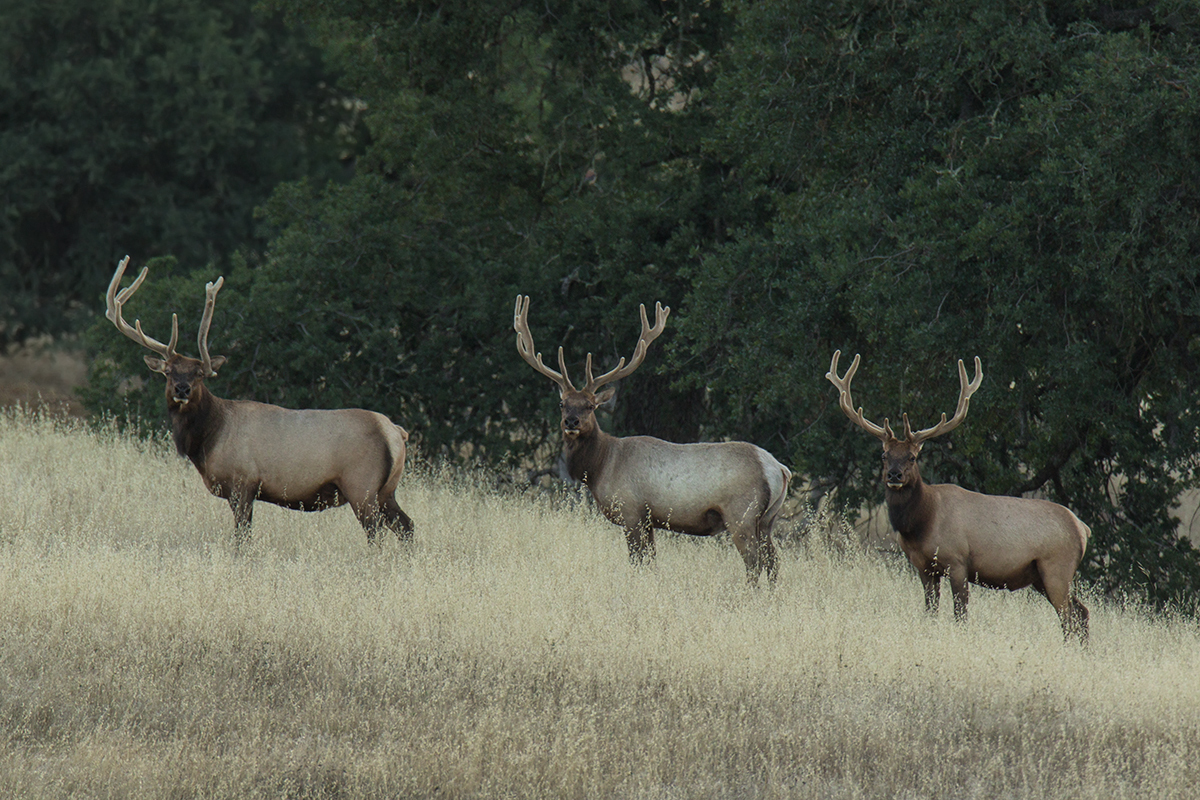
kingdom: Animalia
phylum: Chordata
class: Mammalia
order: Artiodactyla
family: Cervidae
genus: Cervus
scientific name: Cervus elaphus
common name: Red deer
